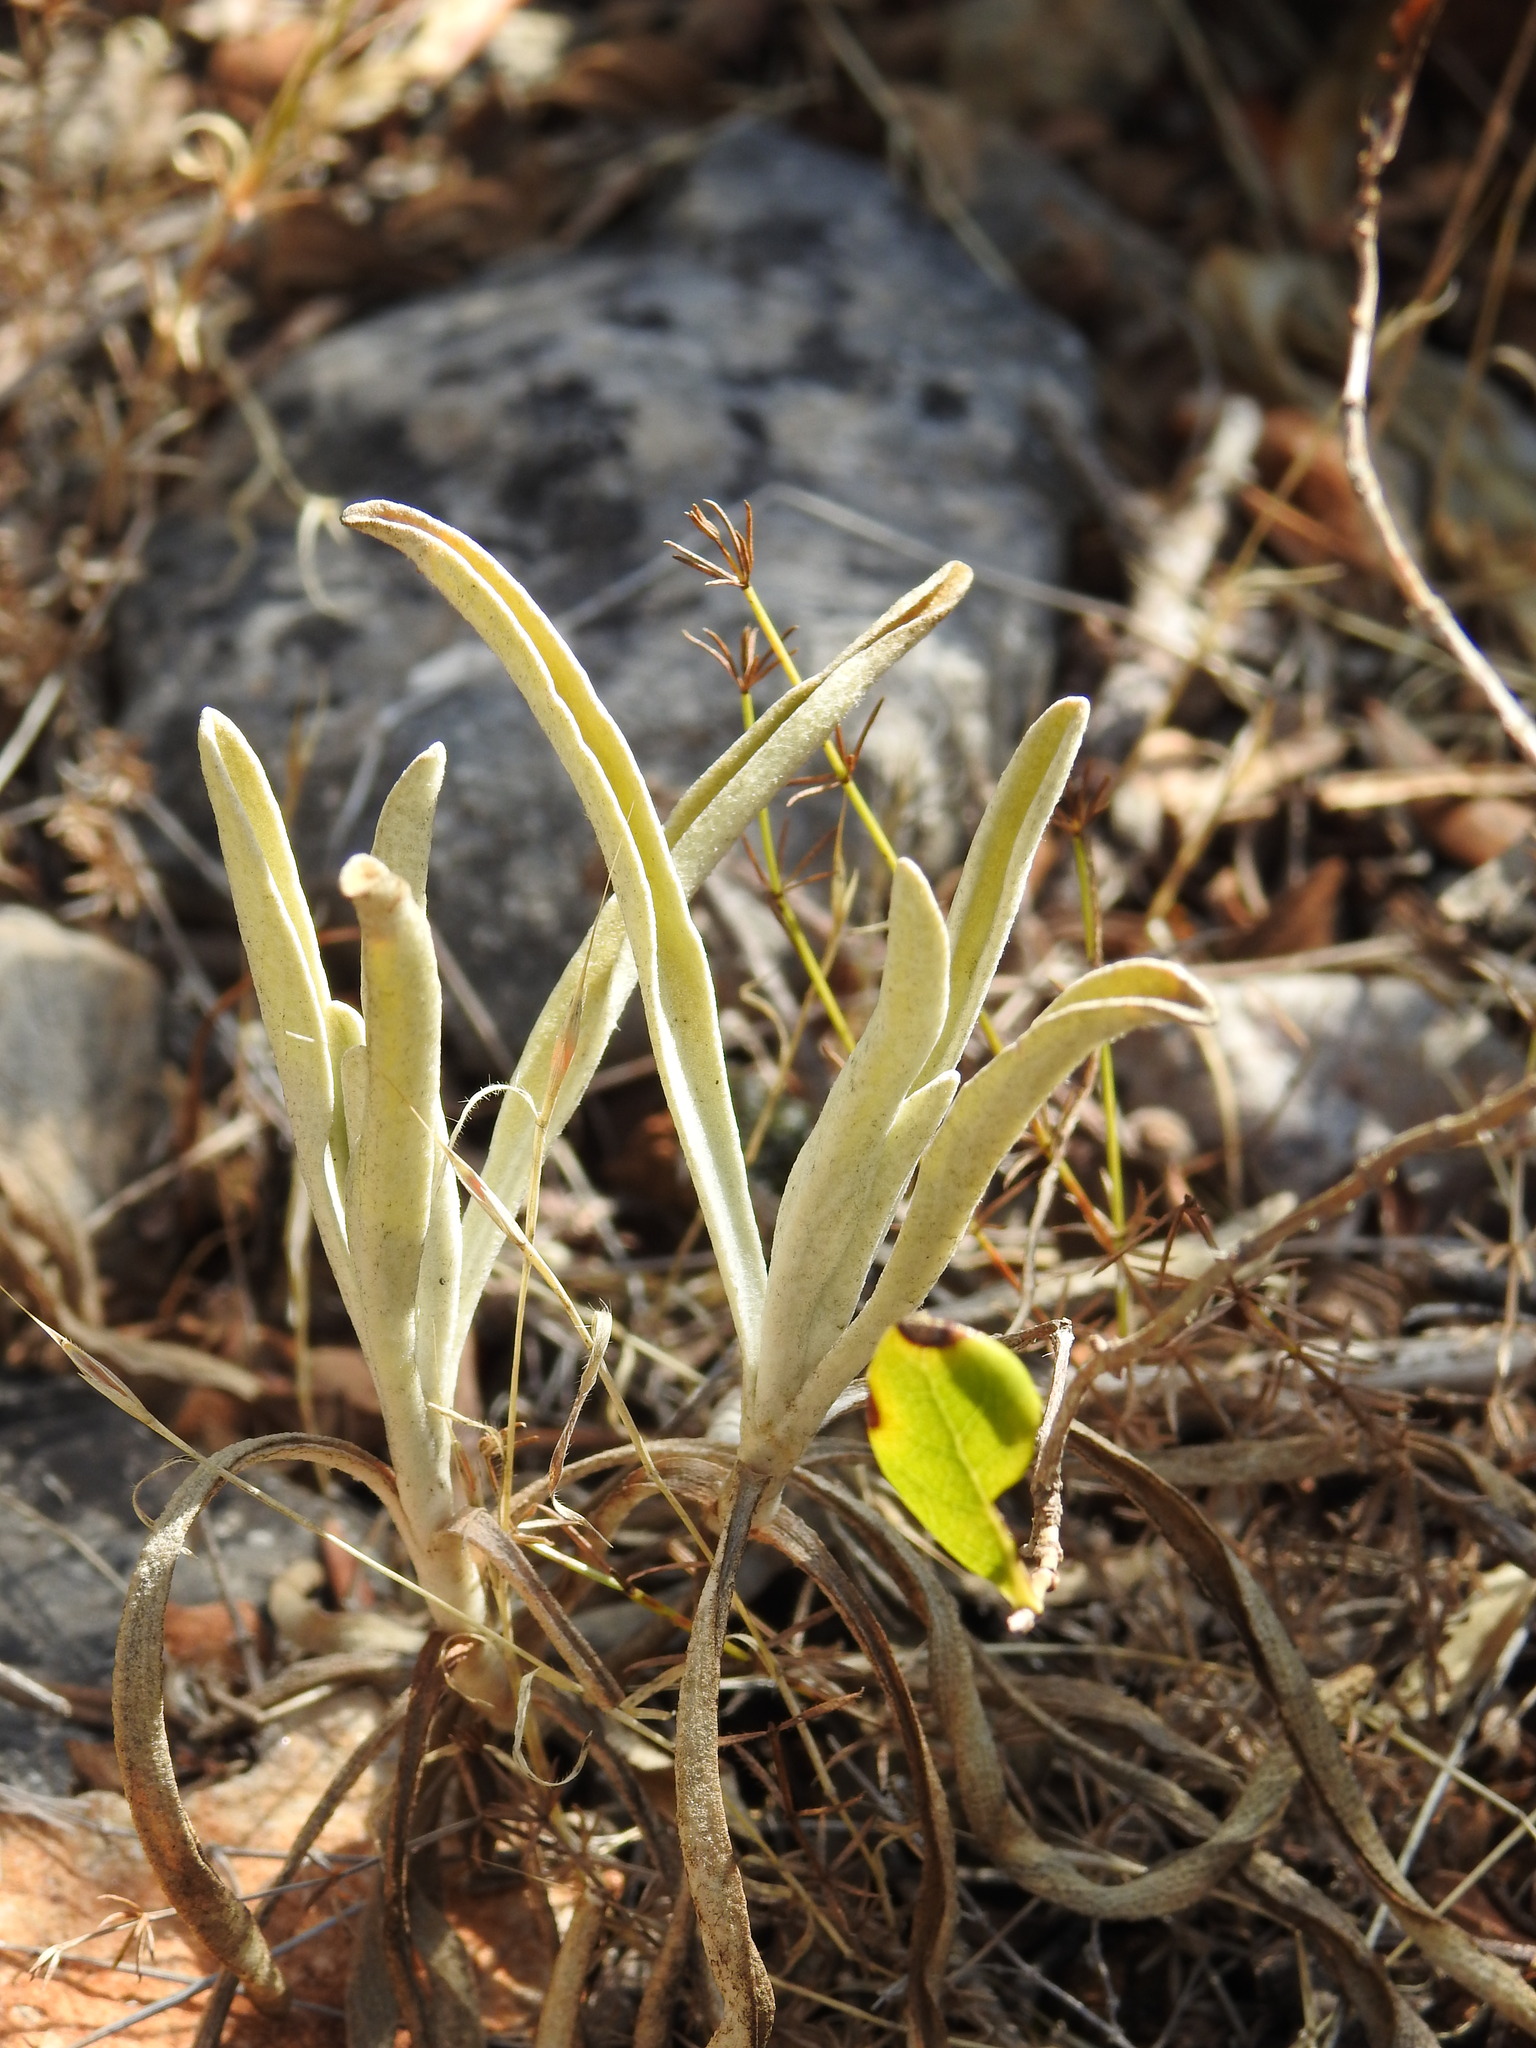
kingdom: Plantae
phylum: Tracheophyta
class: Magnoliopsida
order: Lamiales
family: Lamiaceae
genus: Phlomis
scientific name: Phlomis lychnitis
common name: Lampwickplant
